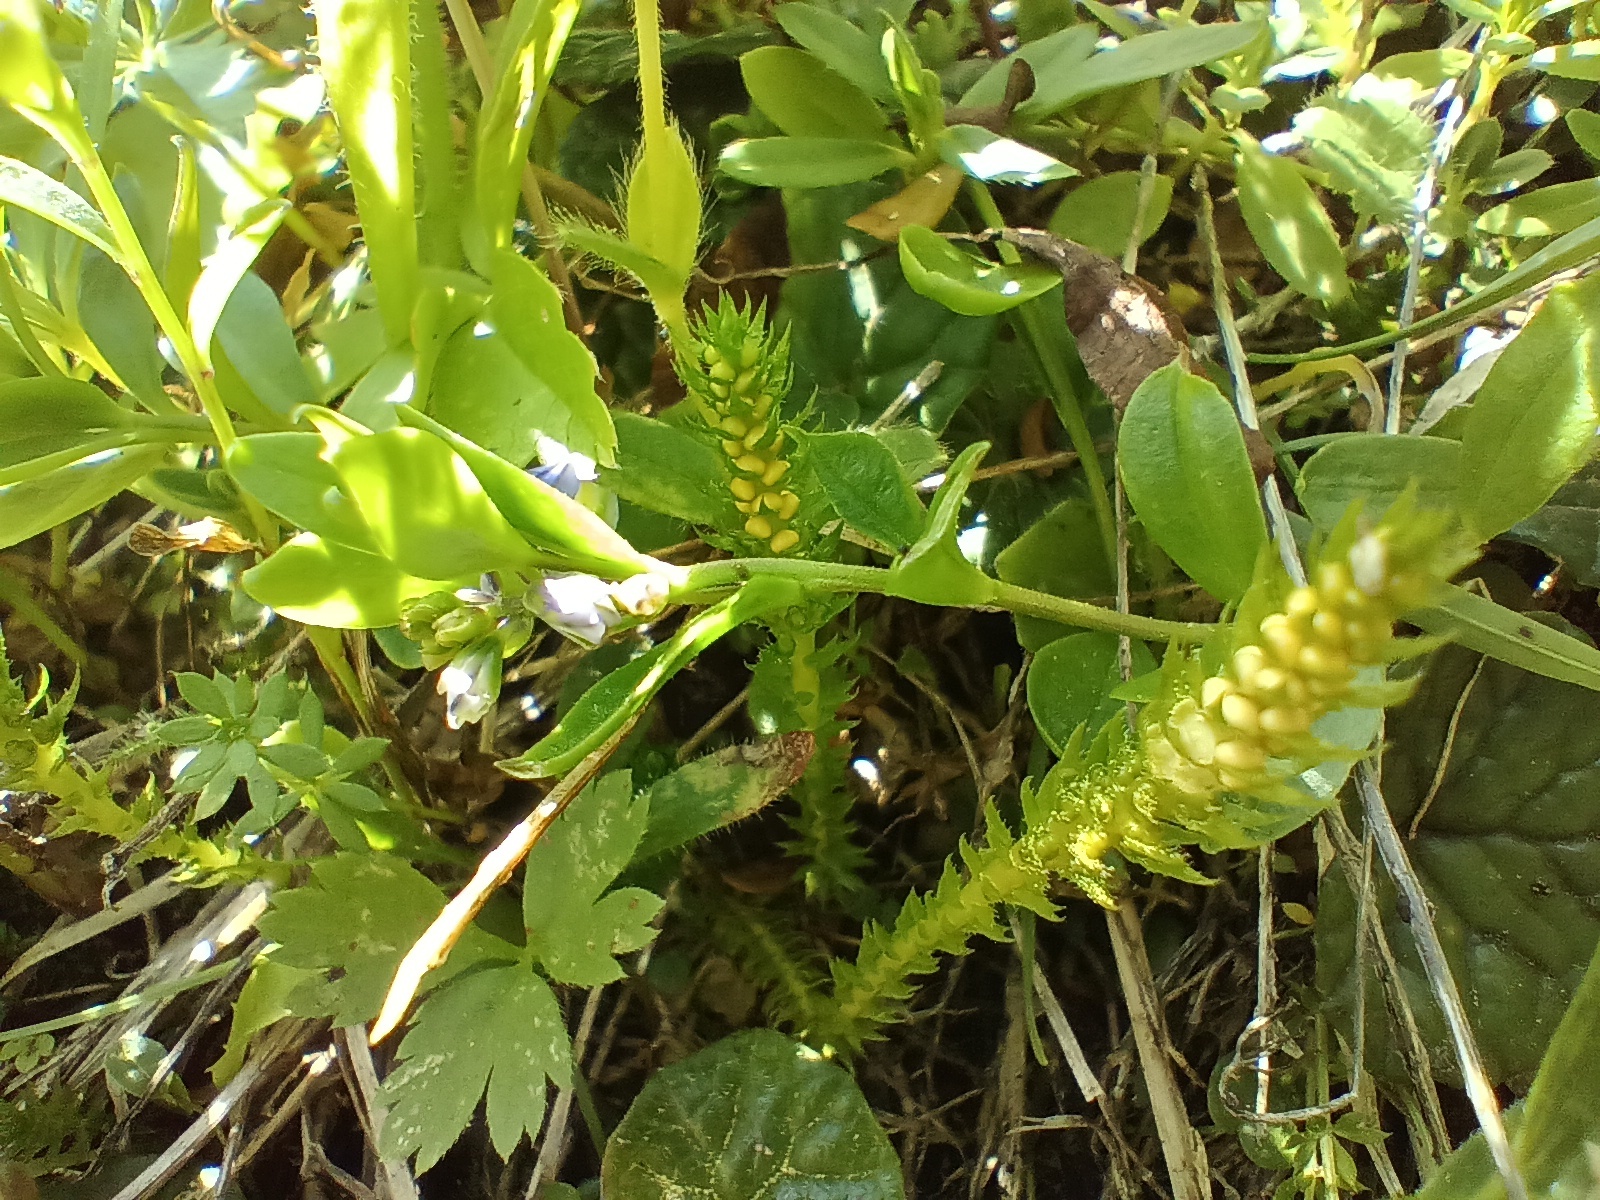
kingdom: Plantae
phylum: Tracheophyta
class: Lycopodiopsida
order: Selaginellales
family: Selaginellaceae
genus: Selaginella
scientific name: Selaginella selaginoides
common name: Prickly mountain-moss
